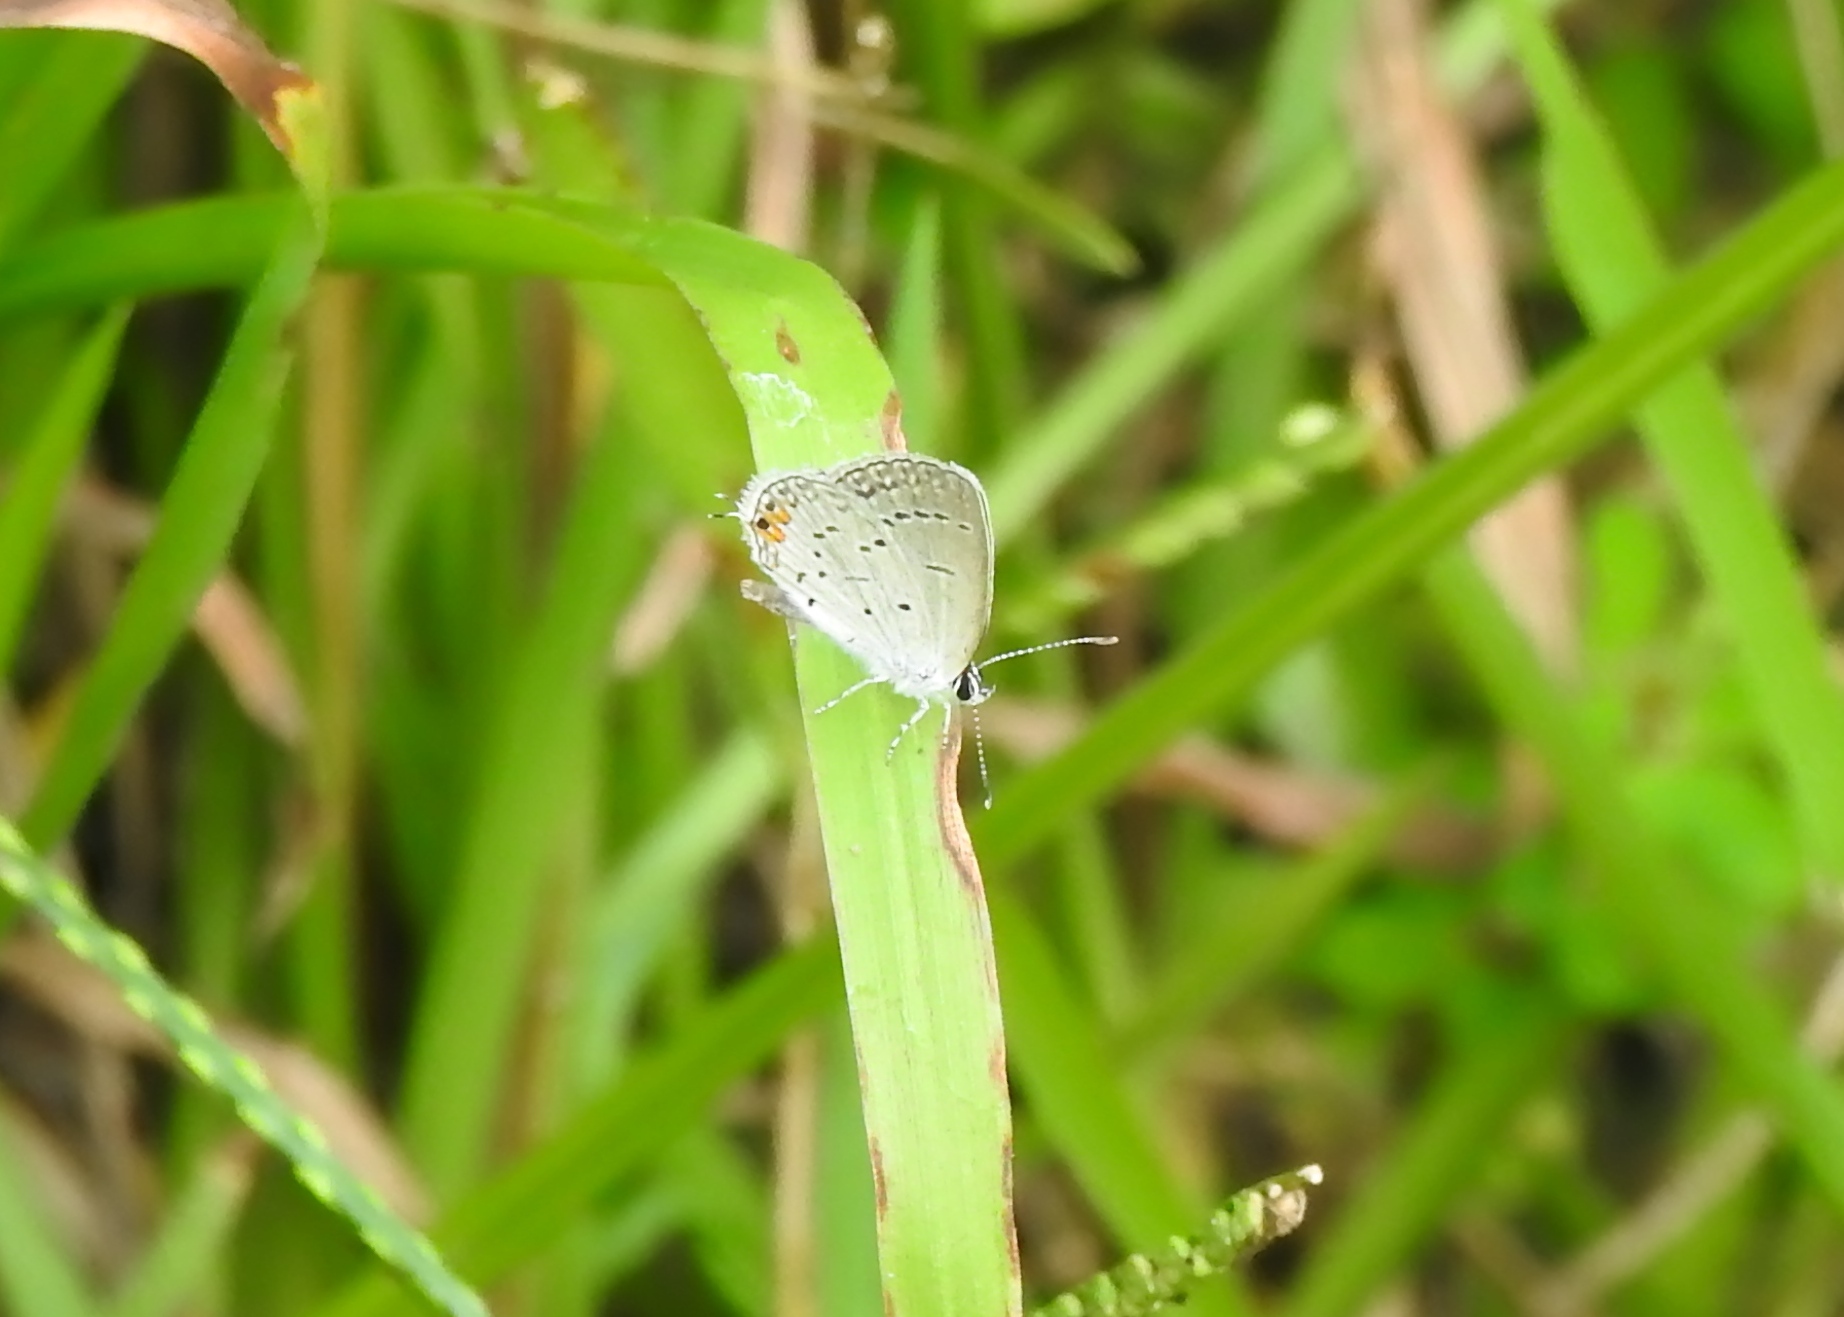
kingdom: Animalia
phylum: Arthropoda
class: Insecta
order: Lepidoptera
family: Lycaenidae
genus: Elkalyce
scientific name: Elkalyce comyntas
